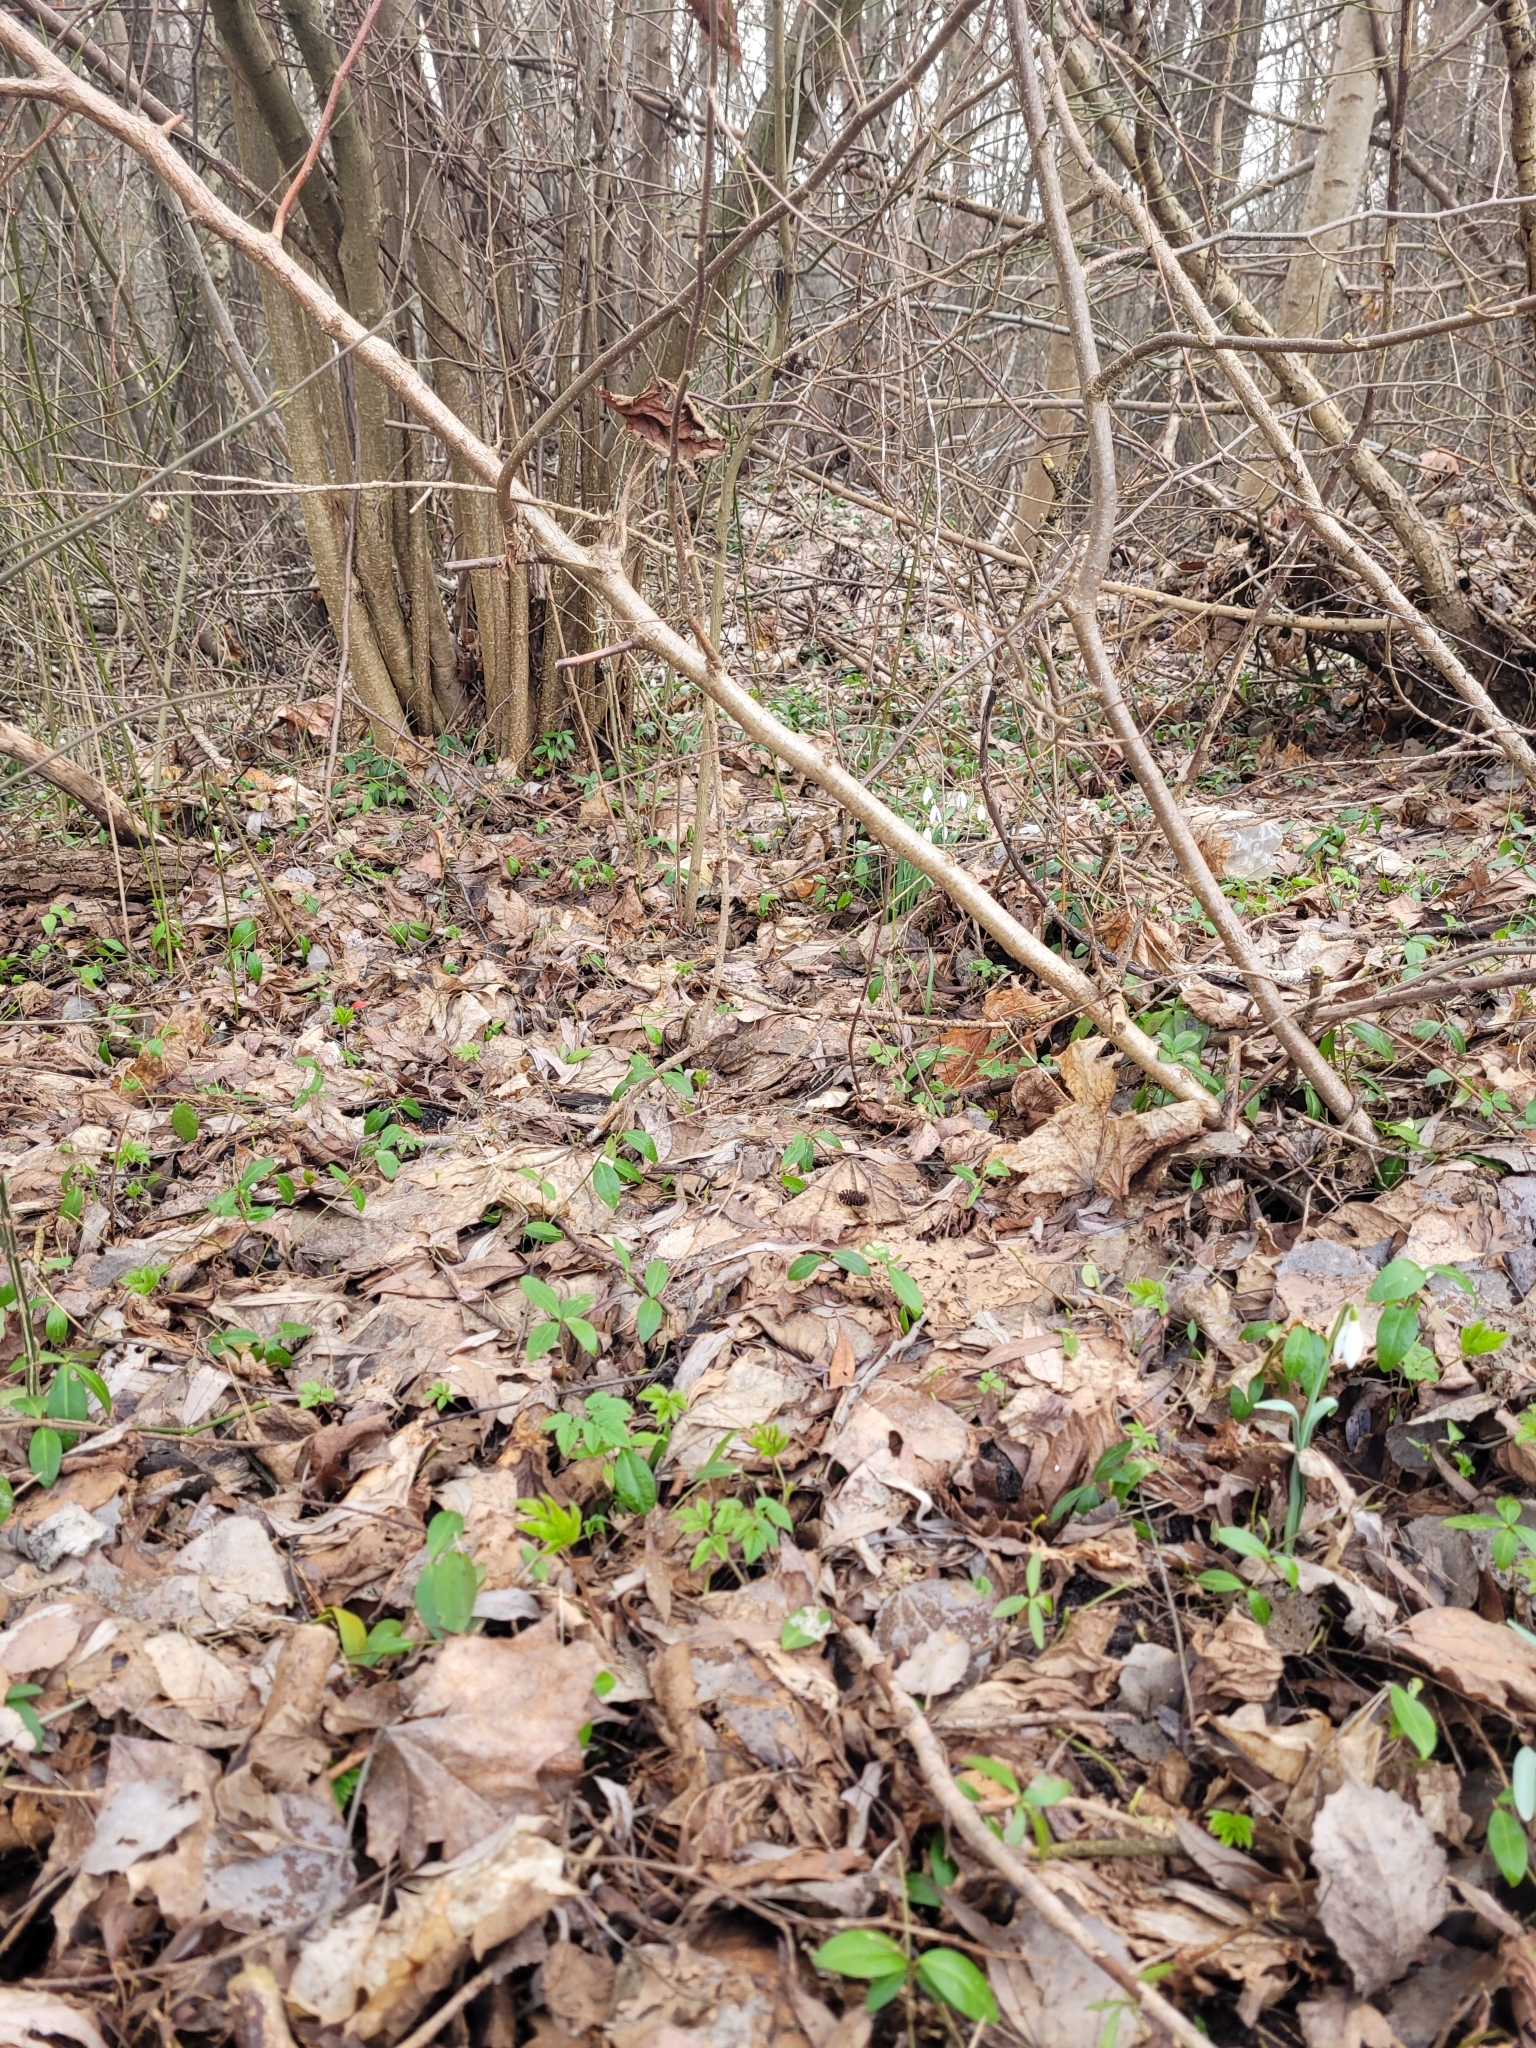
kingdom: Plantae
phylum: Tracheophyta
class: Liliopsida
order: Asparagales
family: Amaryllidaceae
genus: Galanthus
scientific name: Galanthus nivalis
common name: Snowdrop
